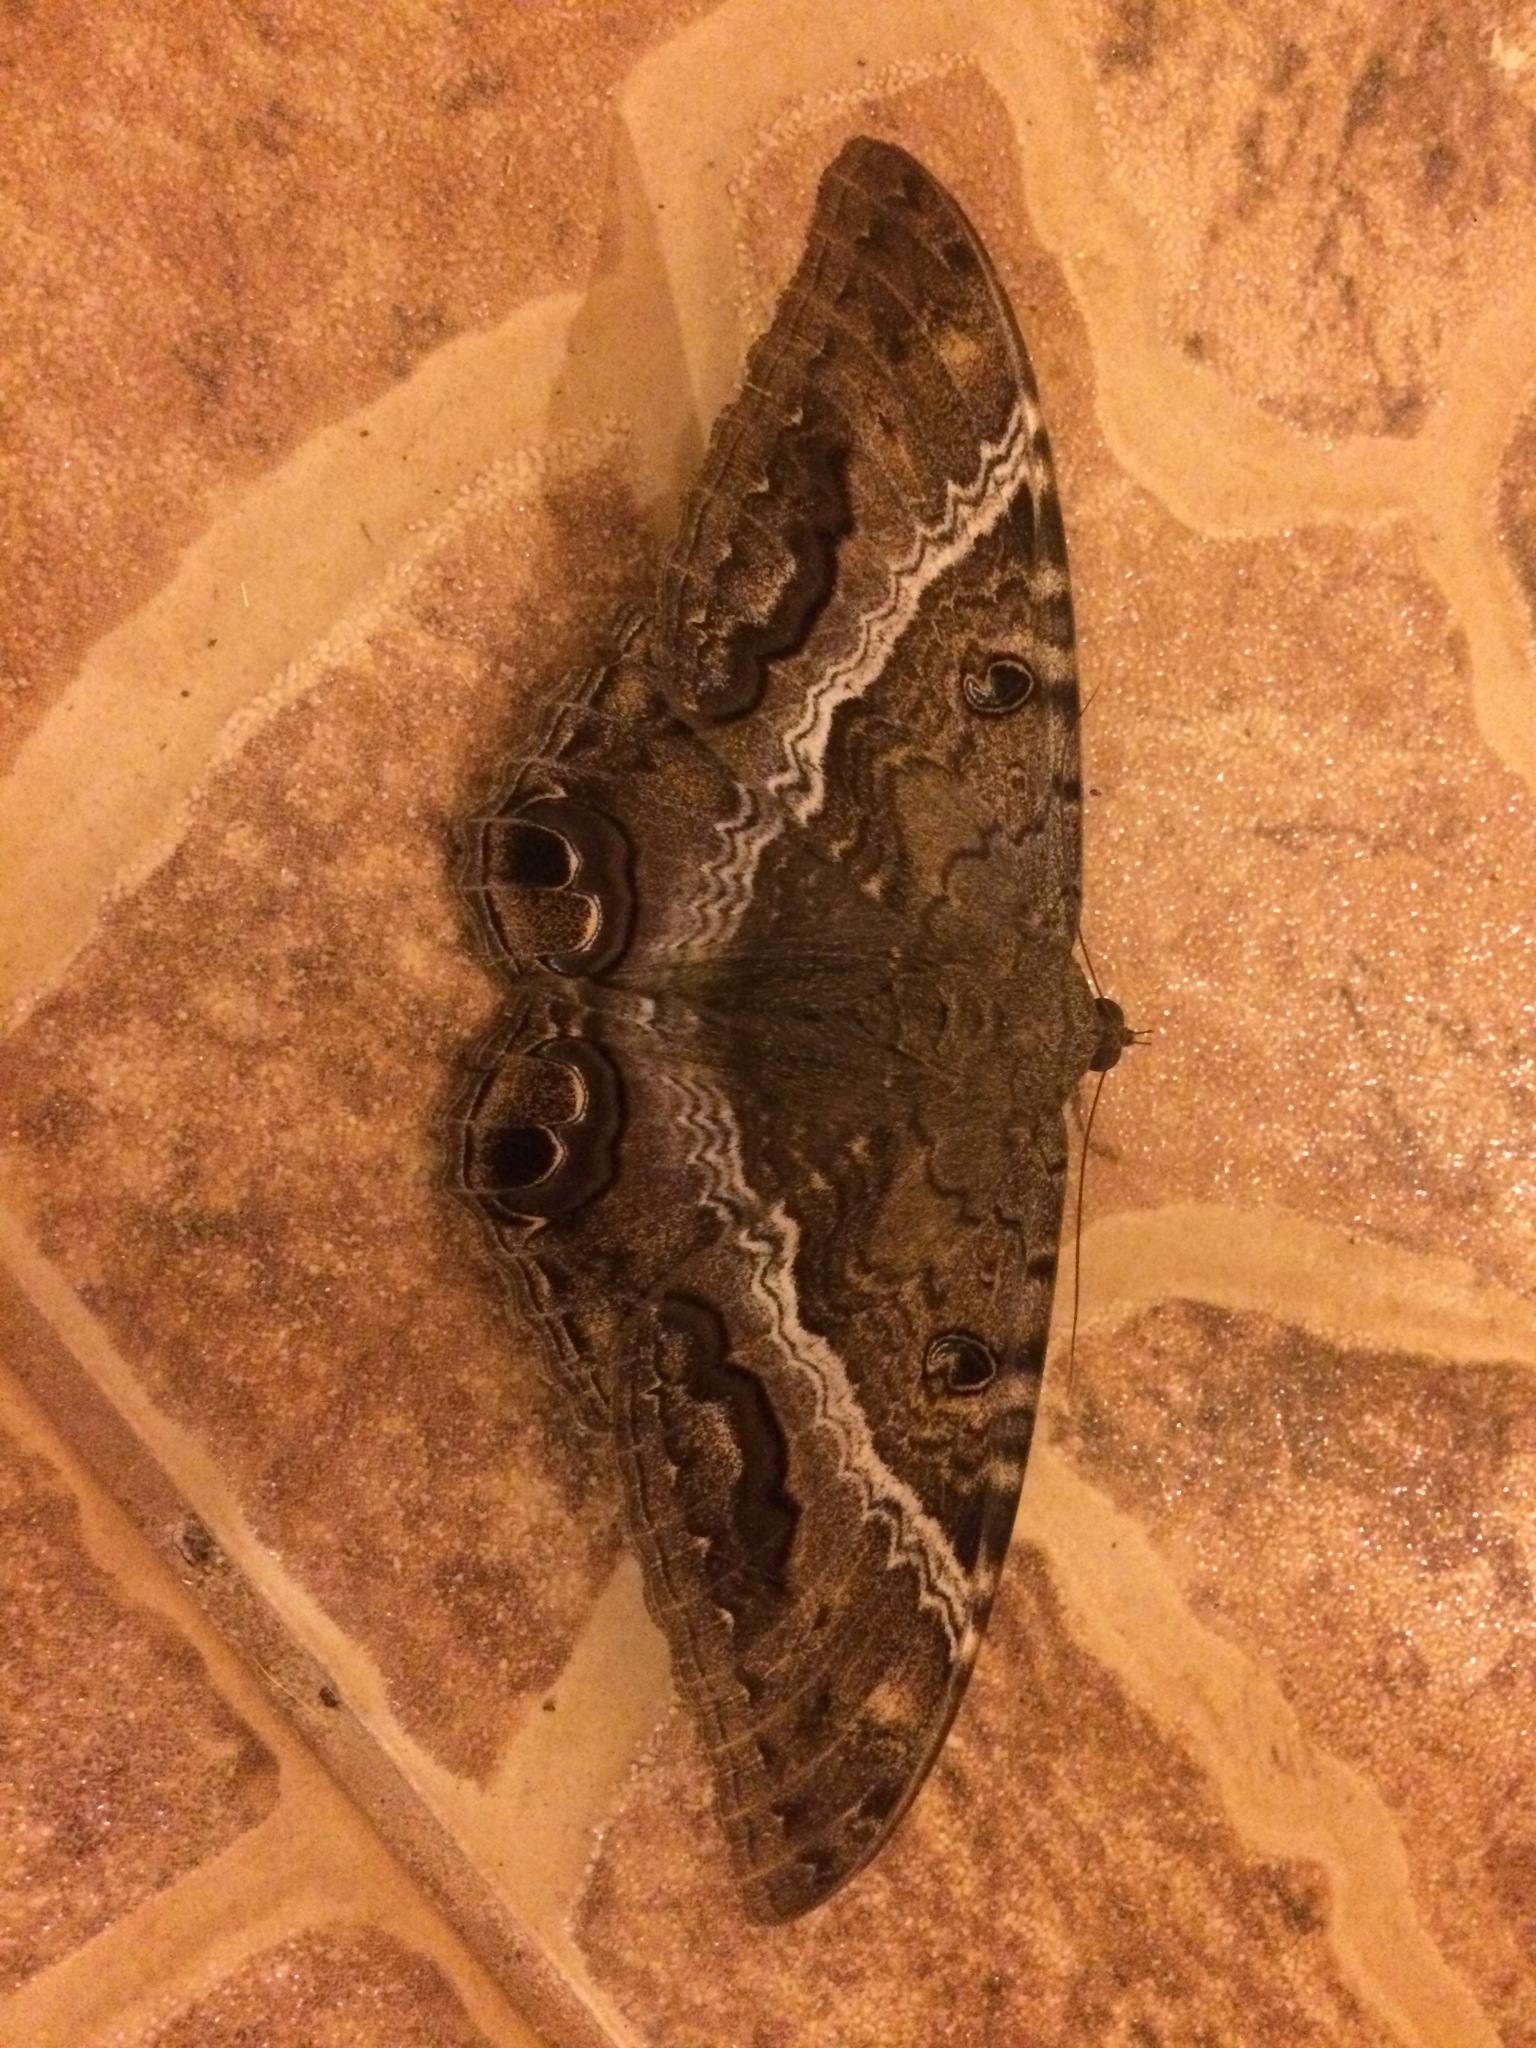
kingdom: Animalia
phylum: Arthropoda
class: Insecta
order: Lepidoptera
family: Erebidae
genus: Ascalapha
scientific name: Ascalapha odorata
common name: Black witch
